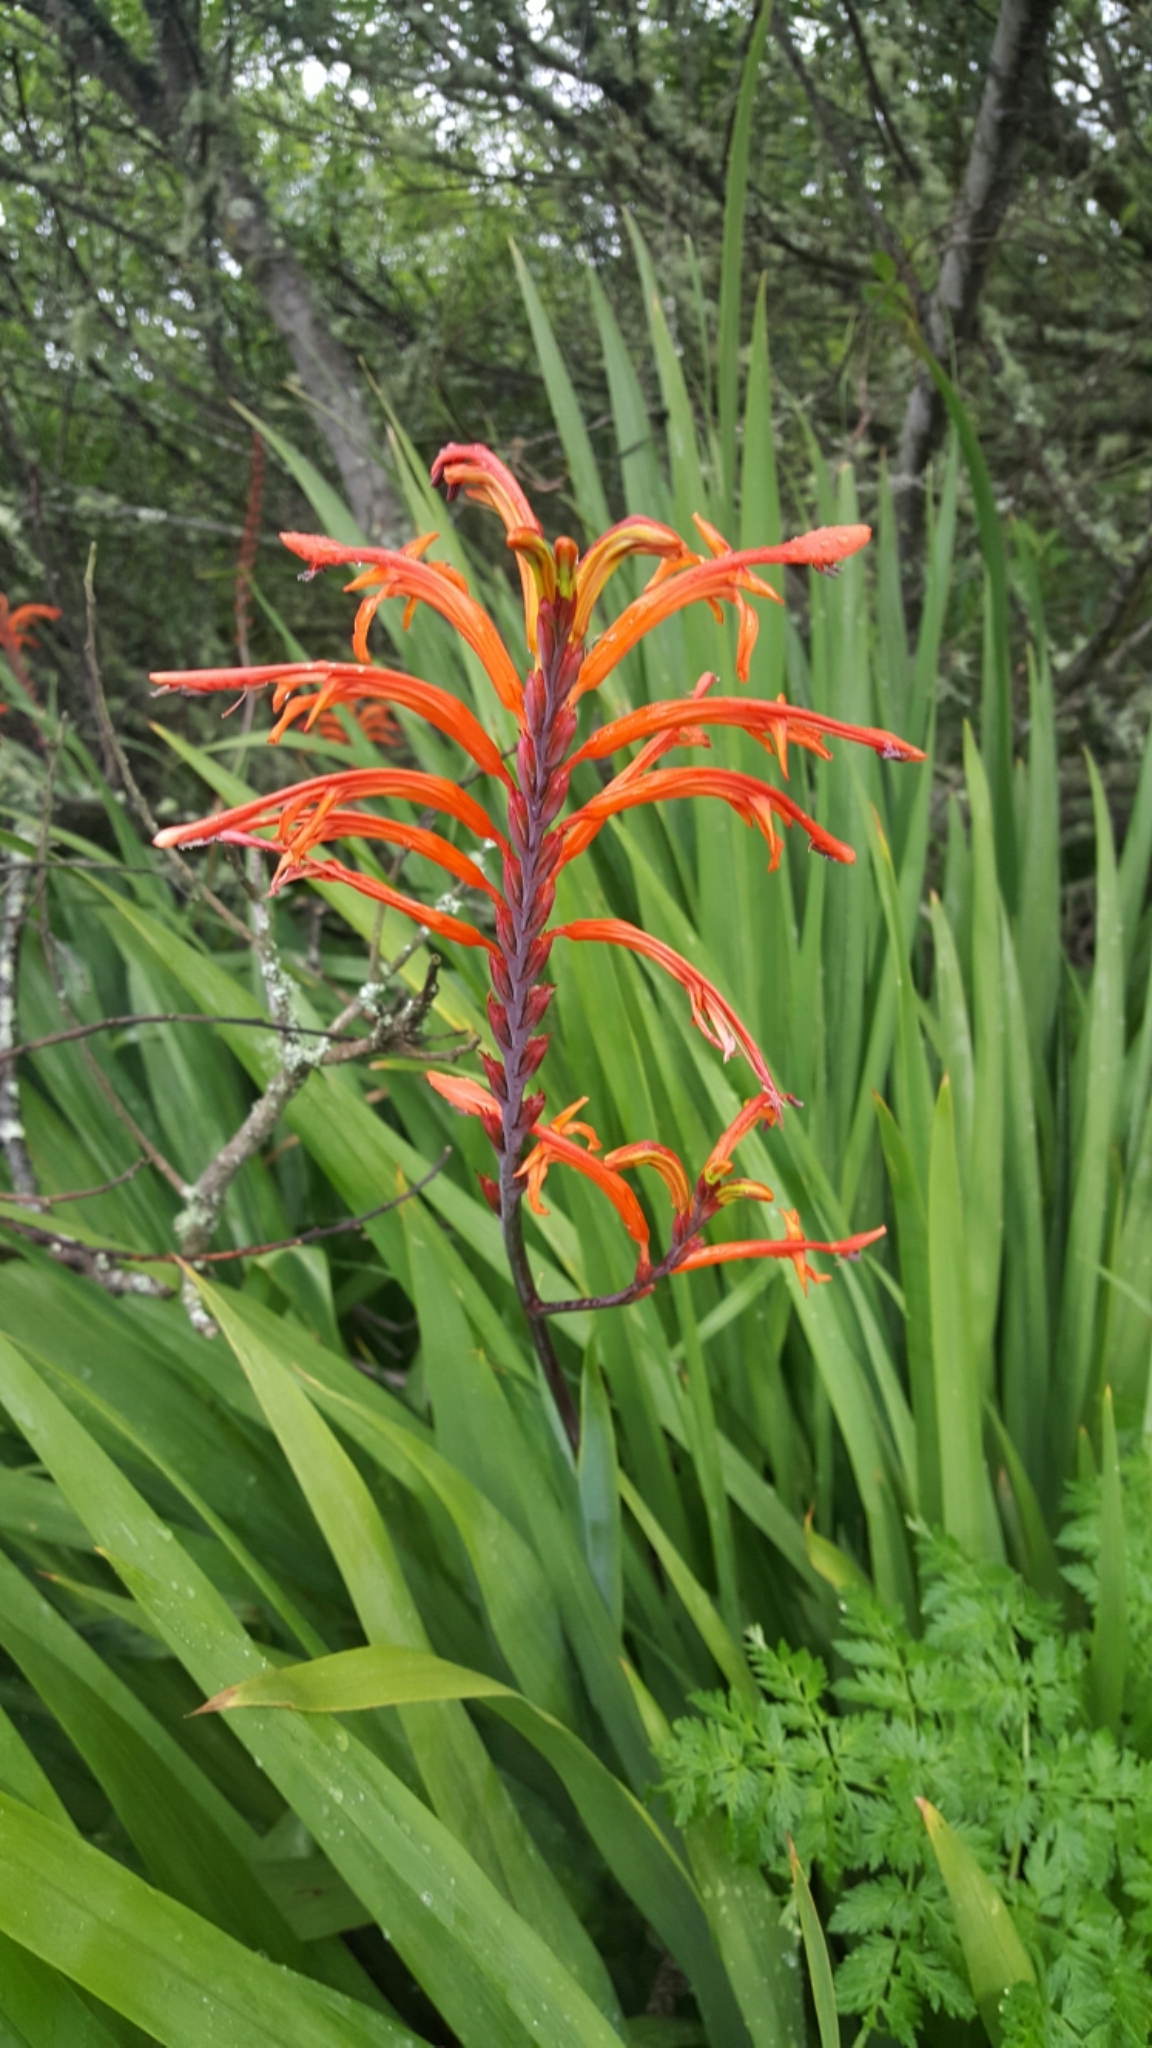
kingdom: Plantae
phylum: Tracheophyta
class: Liliopsida
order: Asparagales
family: Iridaceae
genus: Chasmanthe
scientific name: Chasmanthe floribunda
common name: African cornflag
